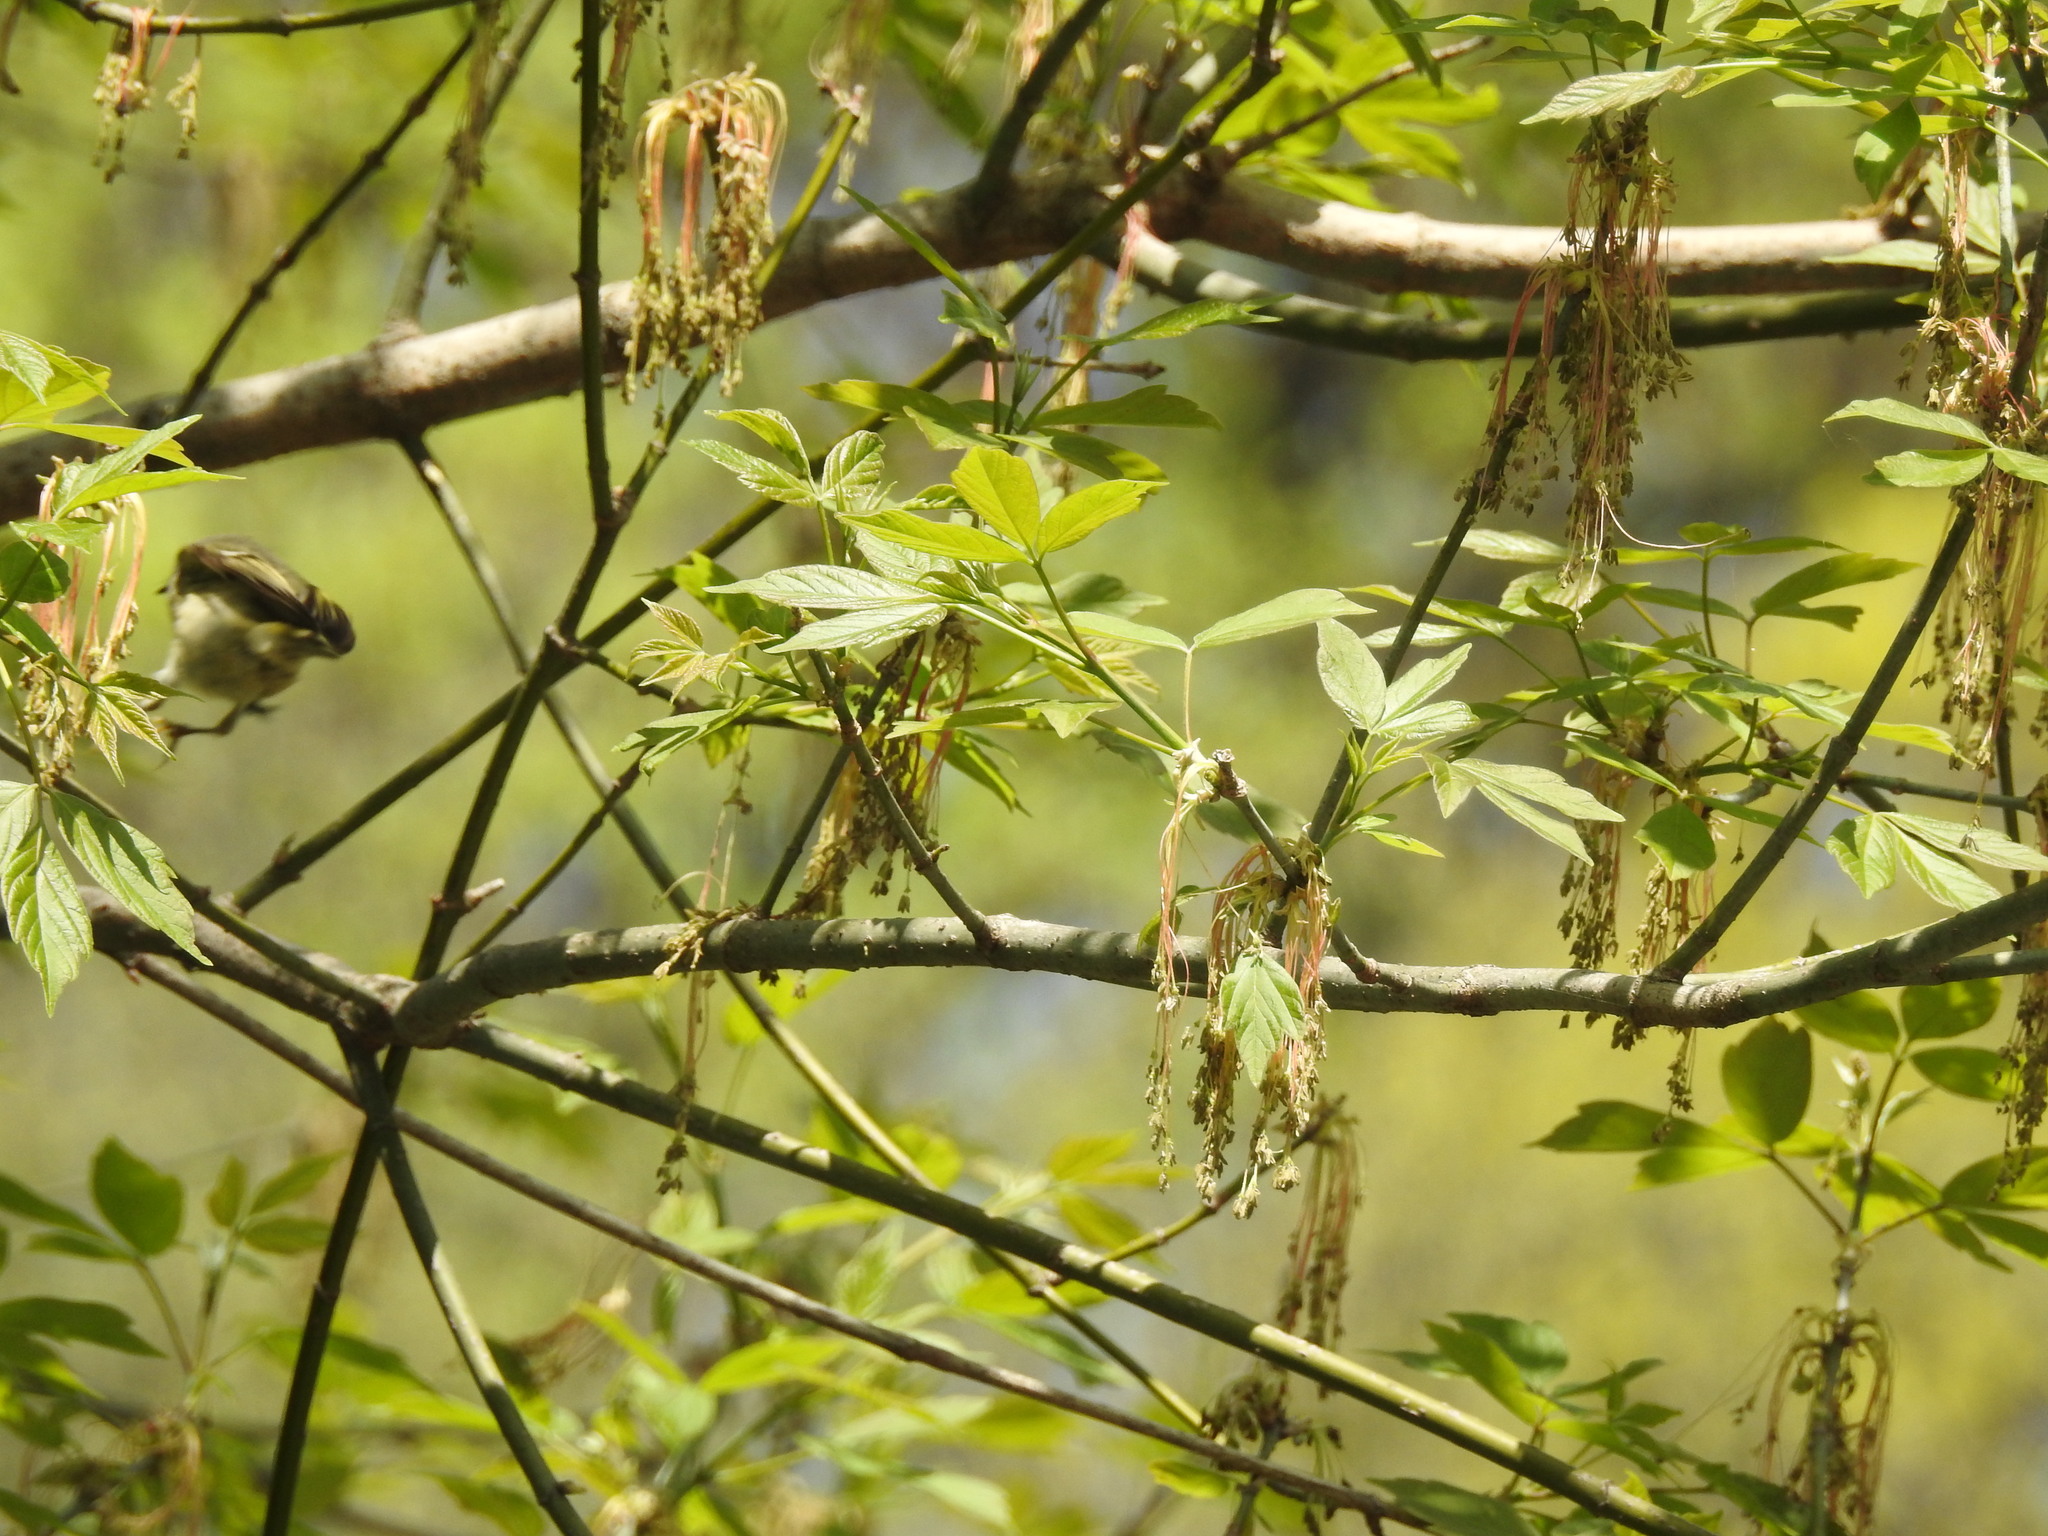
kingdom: Animalia
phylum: Chordata
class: Aves
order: Passeriformes
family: Regulidae
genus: Regulus
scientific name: Regulus calendula
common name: Ruby-crowned kinglet
